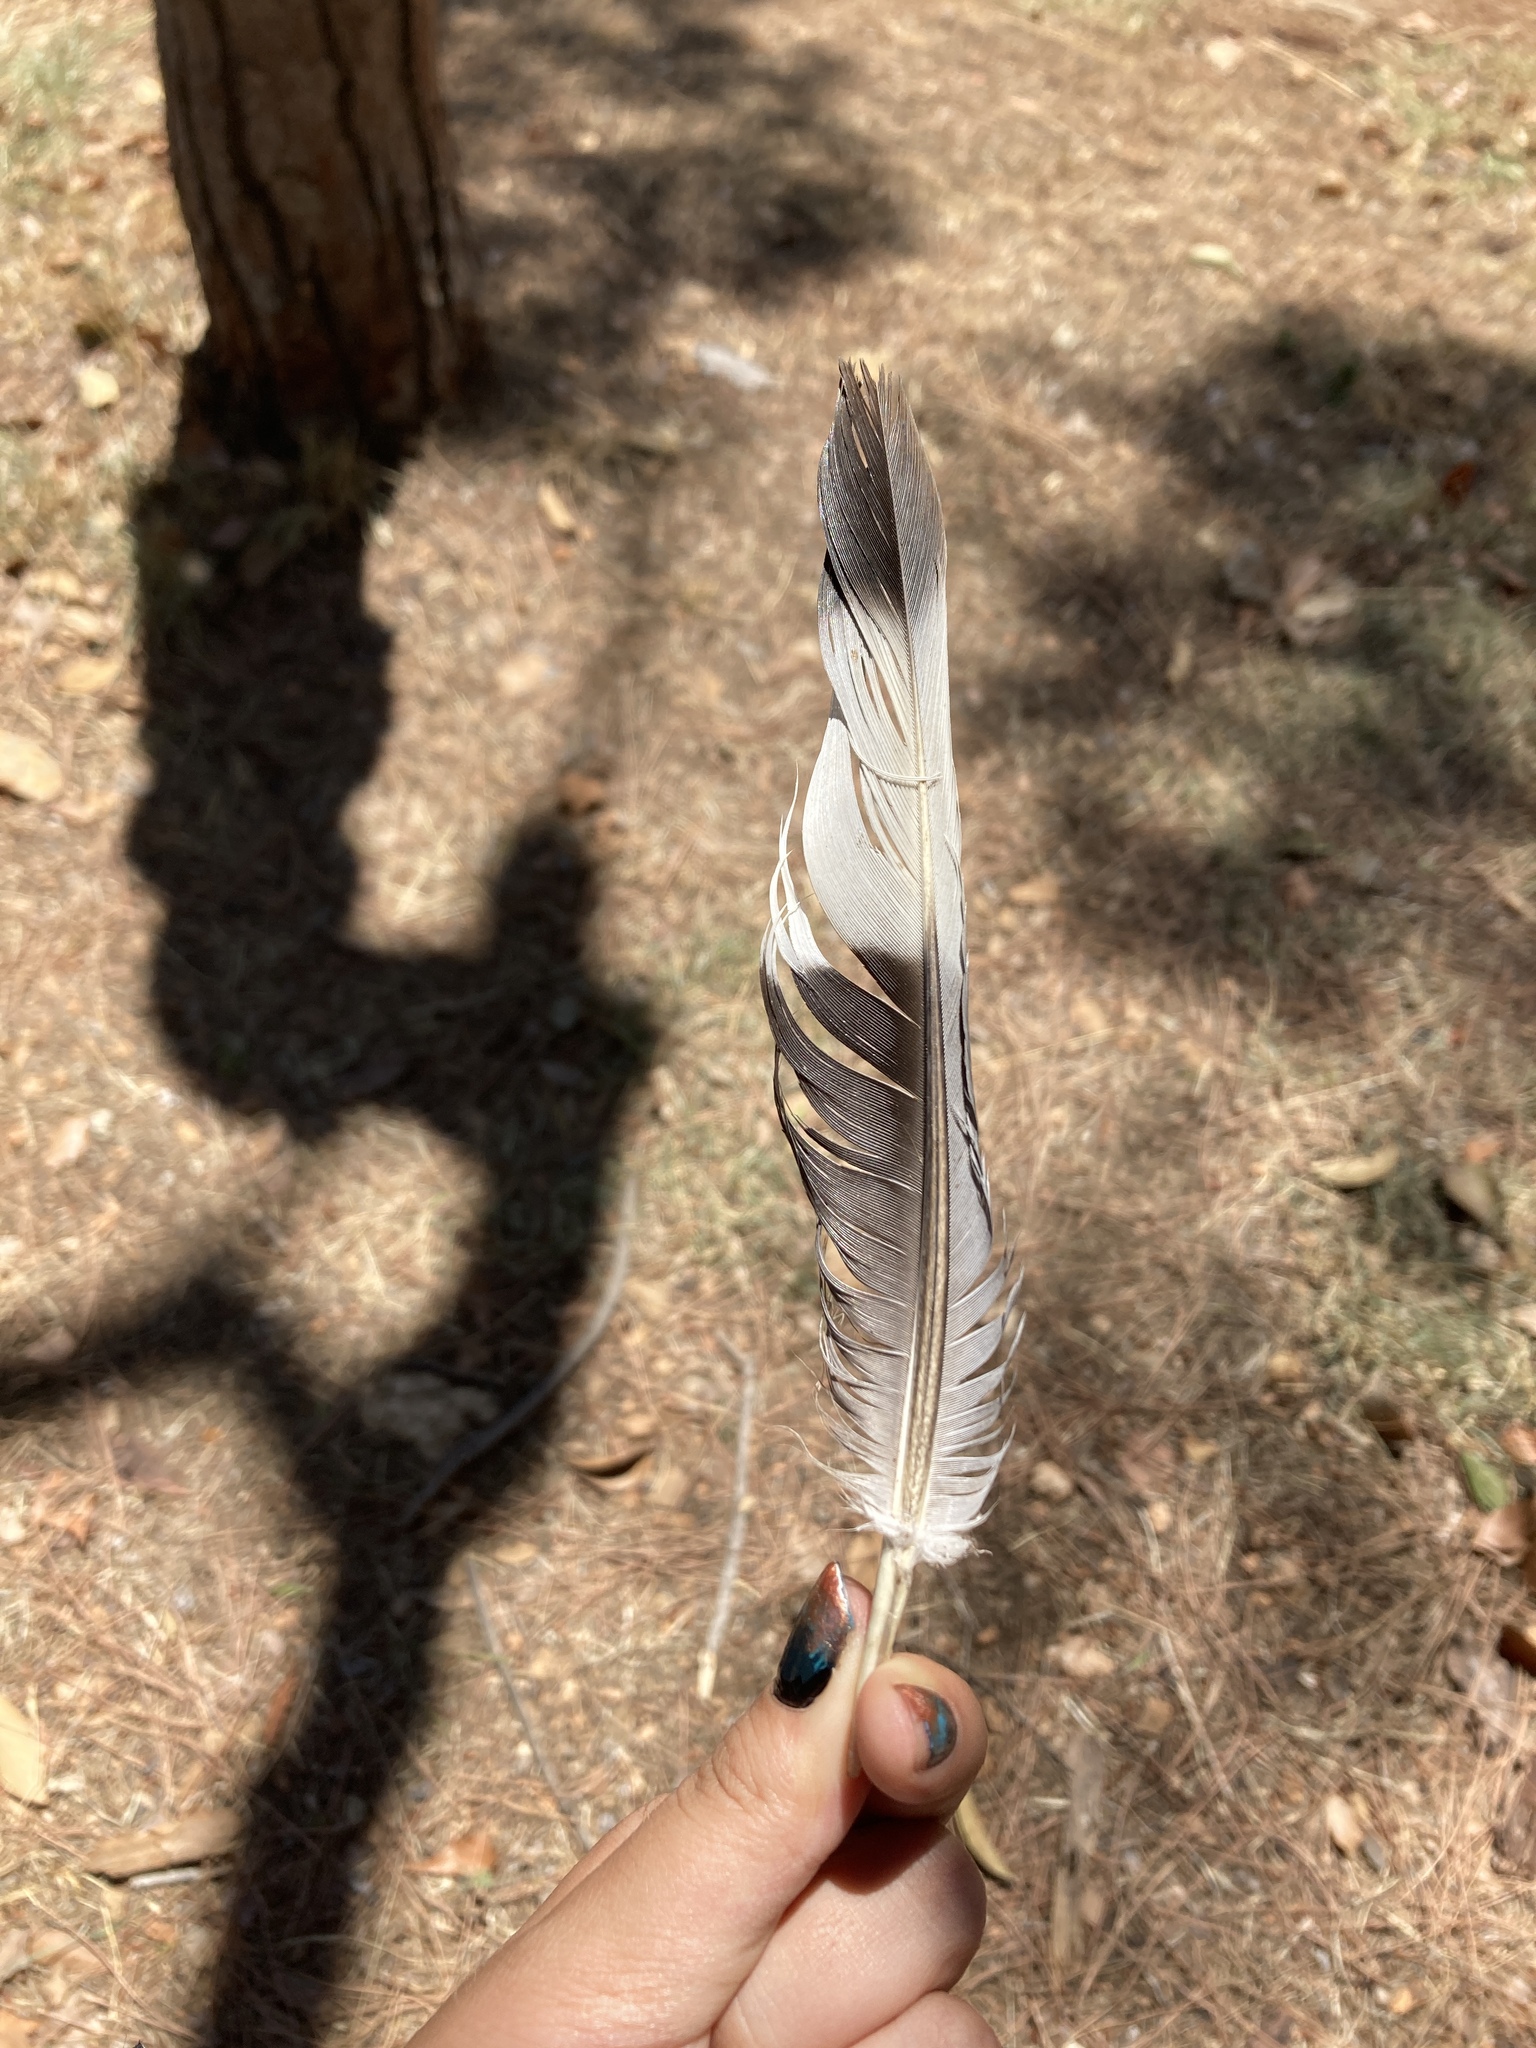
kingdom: Animalia
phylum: Chordata
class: Aves
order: Columbiformes
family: Columbidae
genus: Columba
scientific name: Columba palumbus
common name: Common wood pigeon
